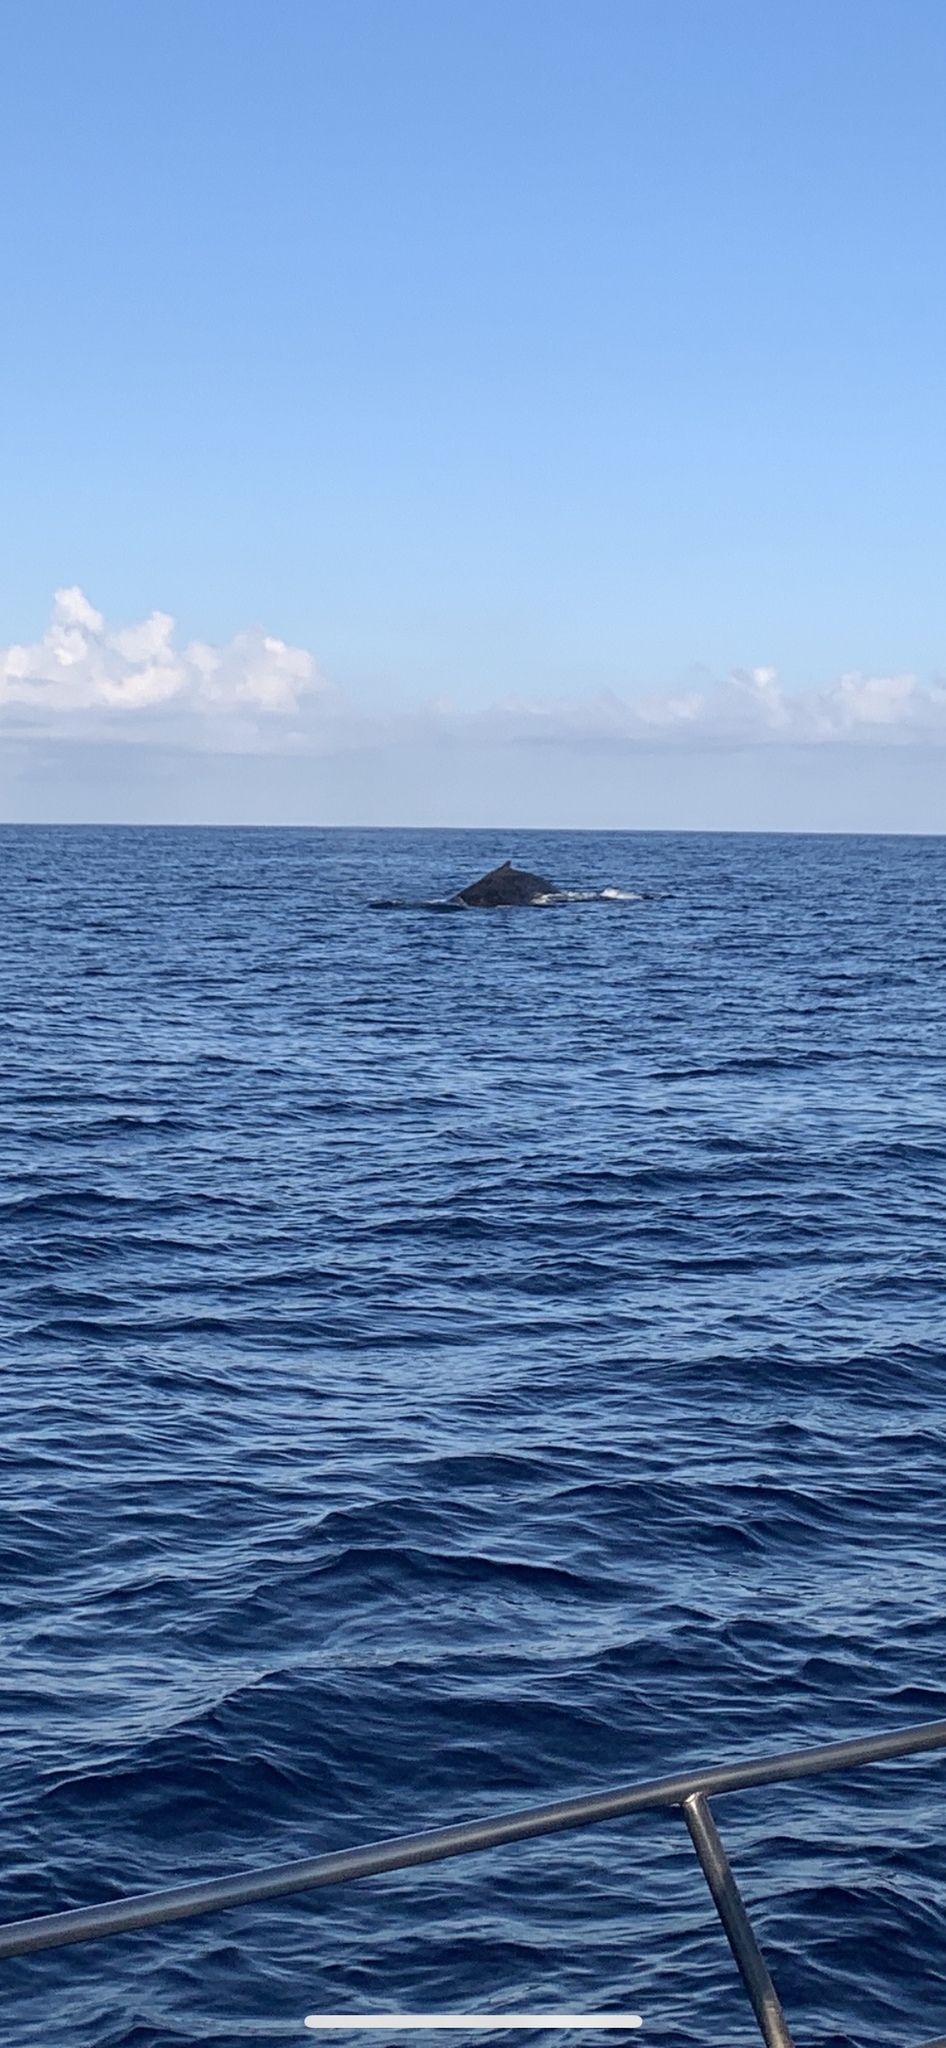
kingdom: Animalia
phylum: Chordata
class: Mammalia
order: Cetacea
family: Balaenopteridae
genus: Megaptera
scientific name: Megaptera novaeangliae
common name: Humpback whale
